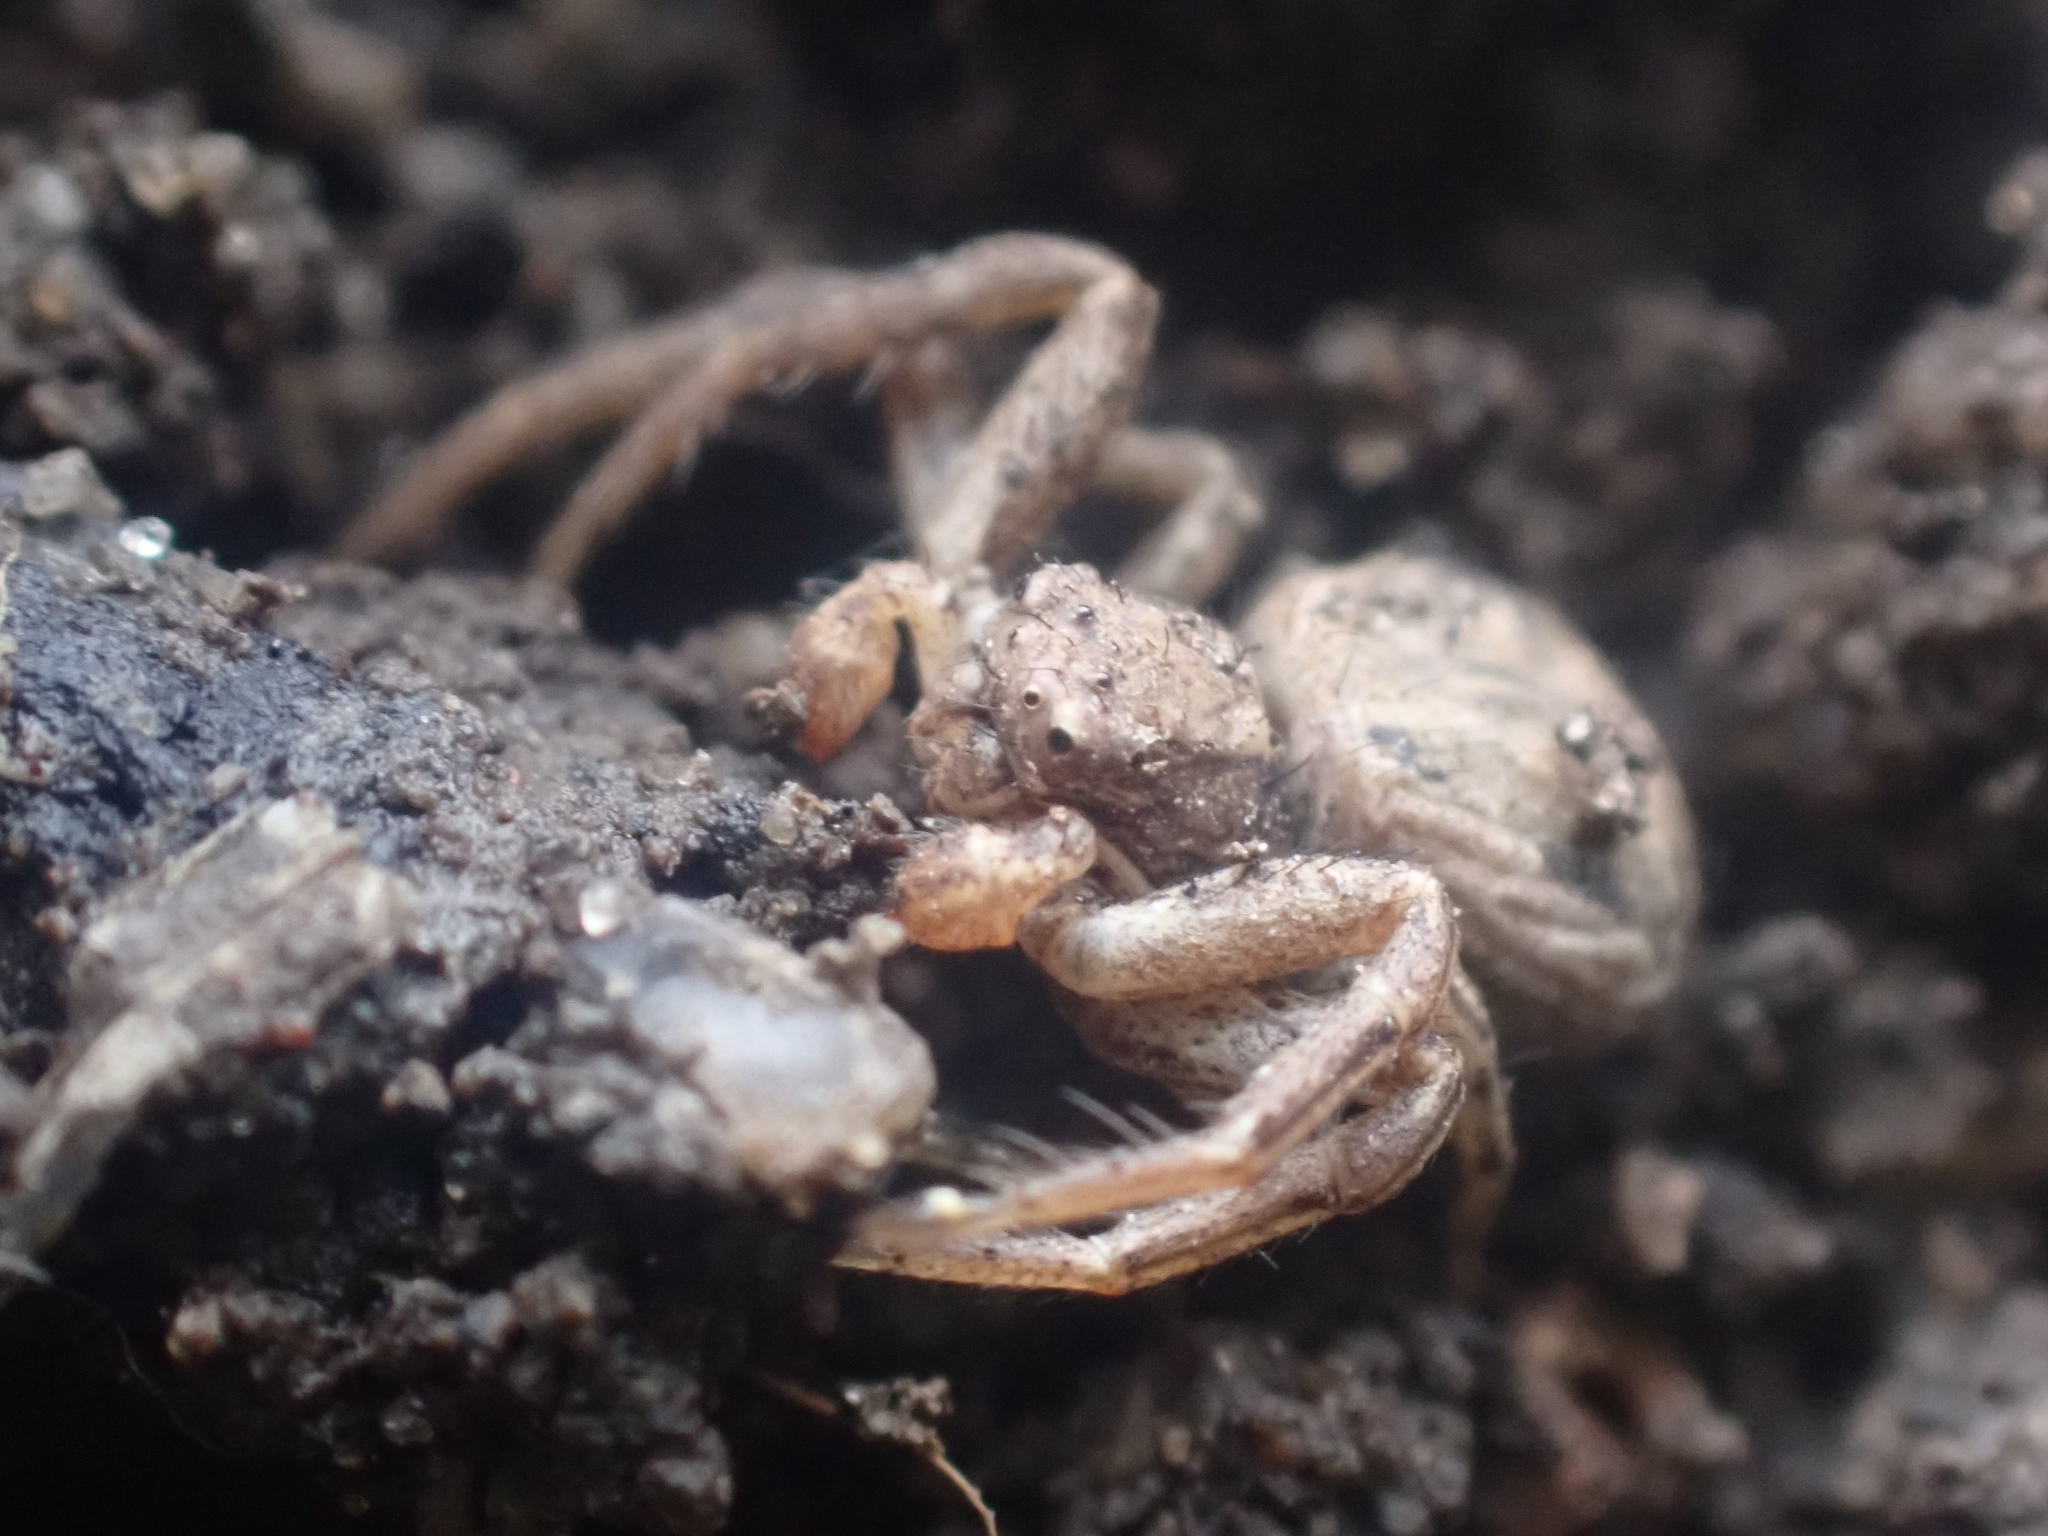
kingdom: Animalia
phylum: Arthropoda
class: Arachnida
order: Araneae
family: Thomisidae
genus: Xysticus
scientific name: Xysticus
